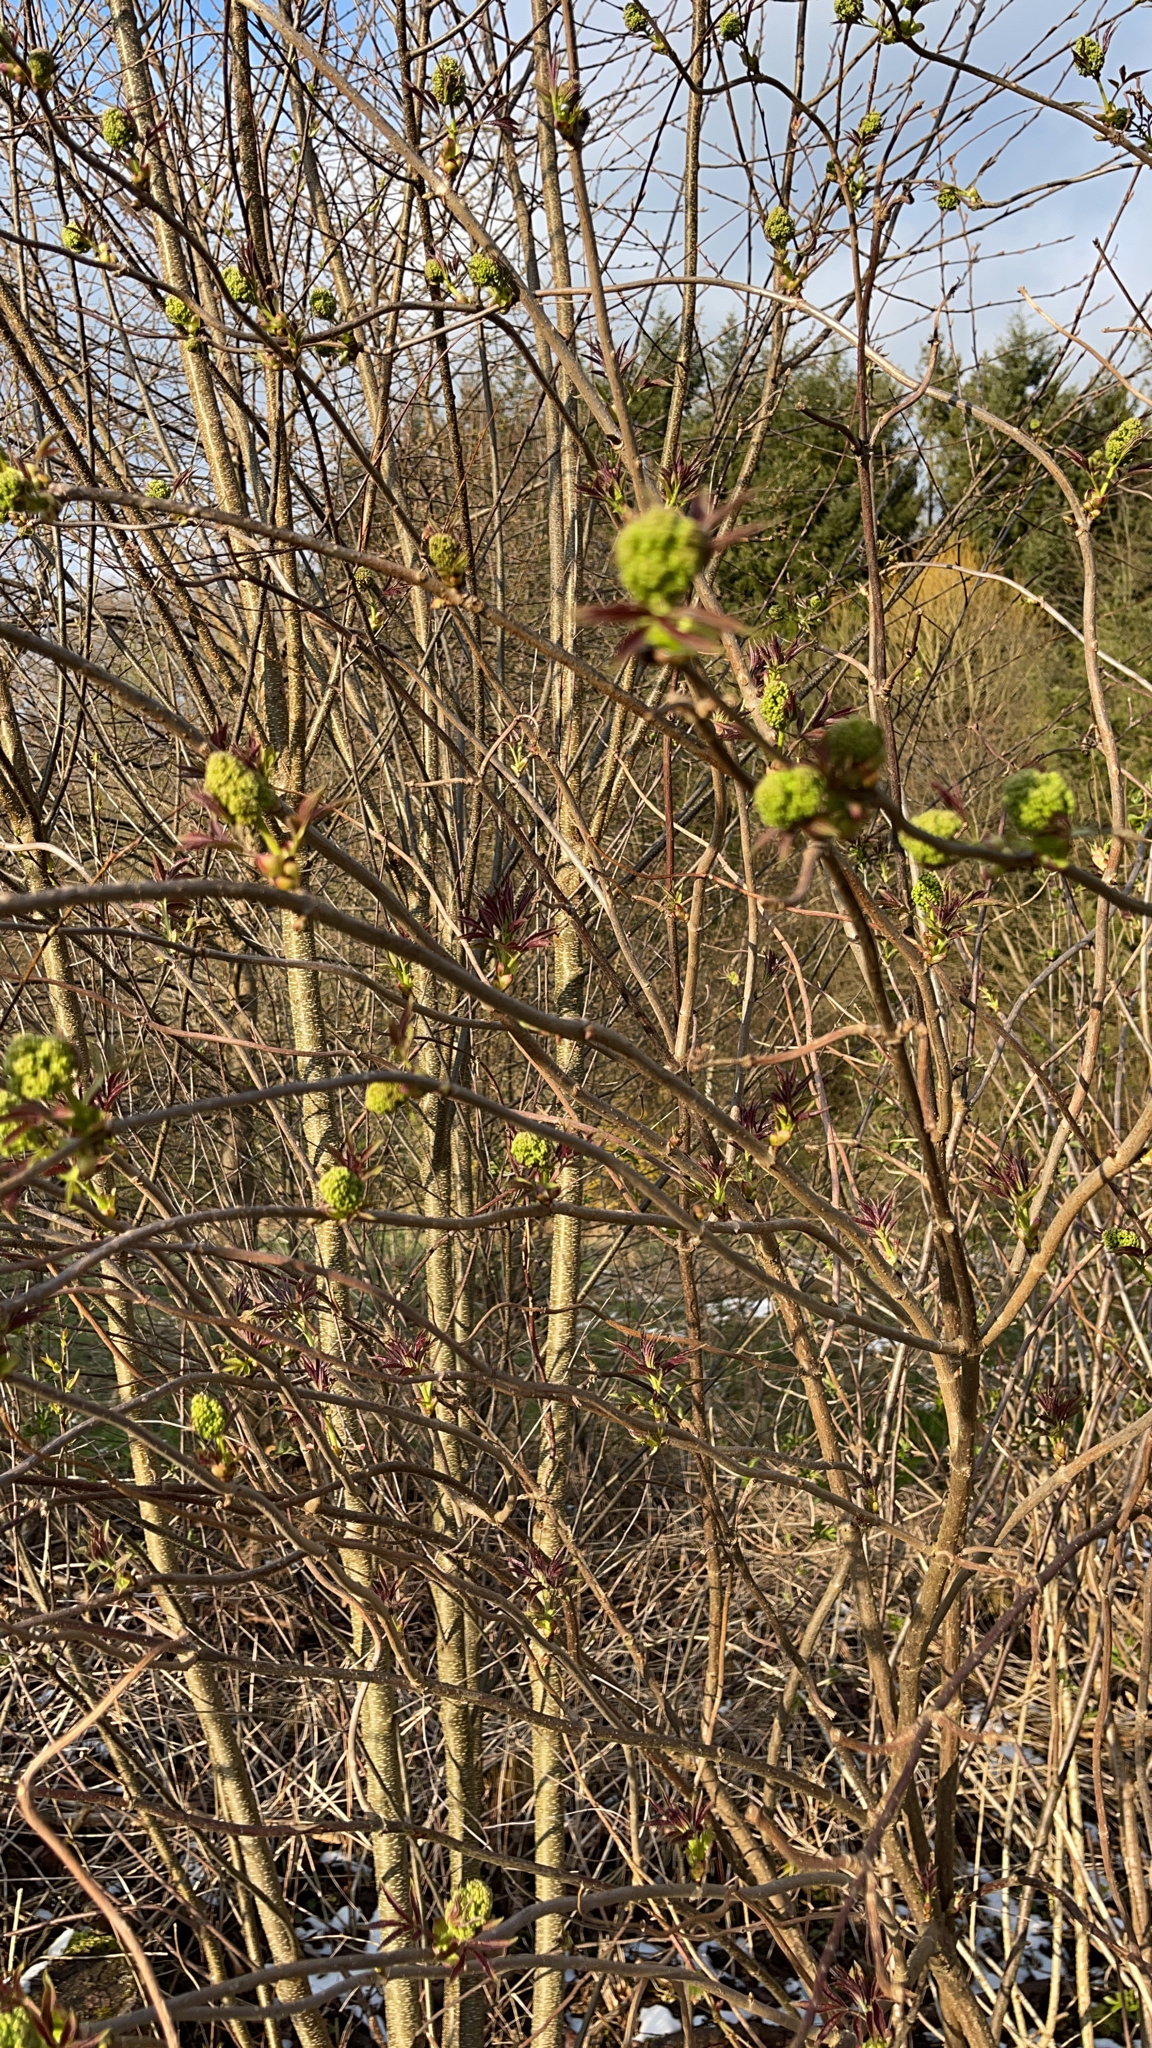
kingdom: Plantae
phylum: Tracheophyta
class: Magnoliopsida
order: Dipsacales
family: Viburnaceae
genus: Sambucus
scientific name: Sambucus racemosa
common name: Red-berried elder
